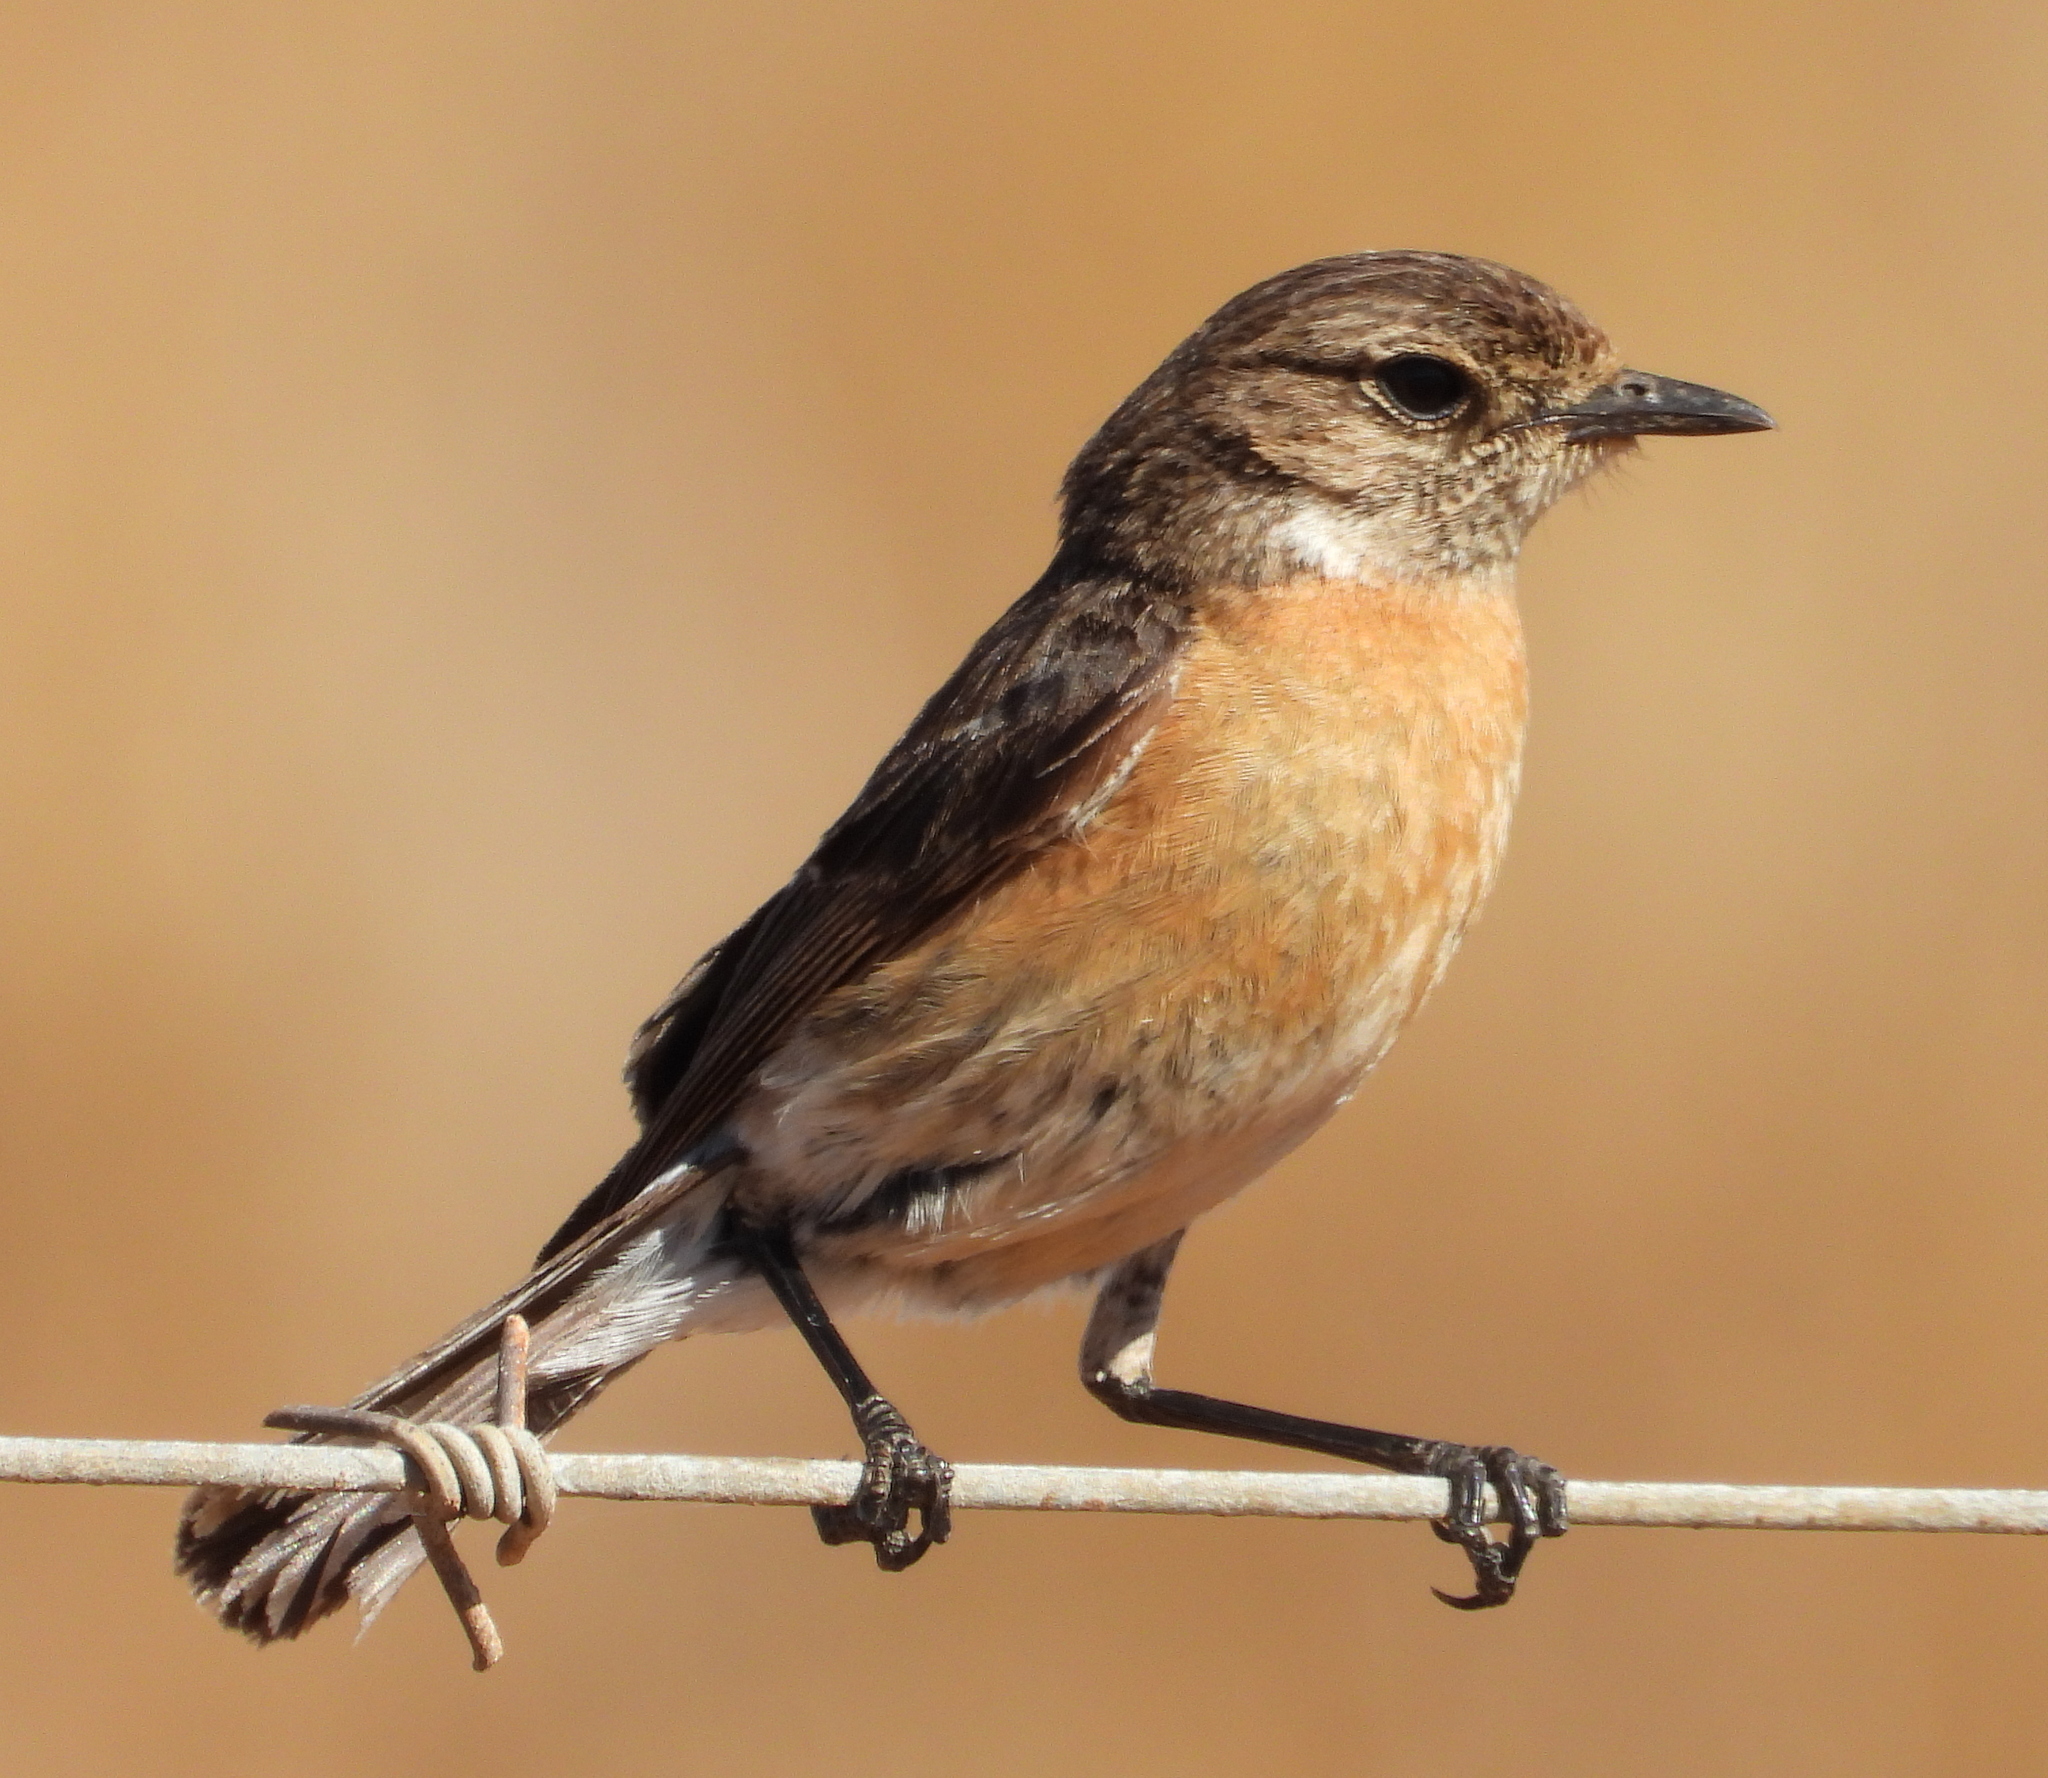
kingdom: Animalia
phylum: Chordata
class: Aves
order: Passeriformes
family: Muscicapidae
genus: Saxicola
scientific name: Saxicola torquatus
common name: African stonechat
